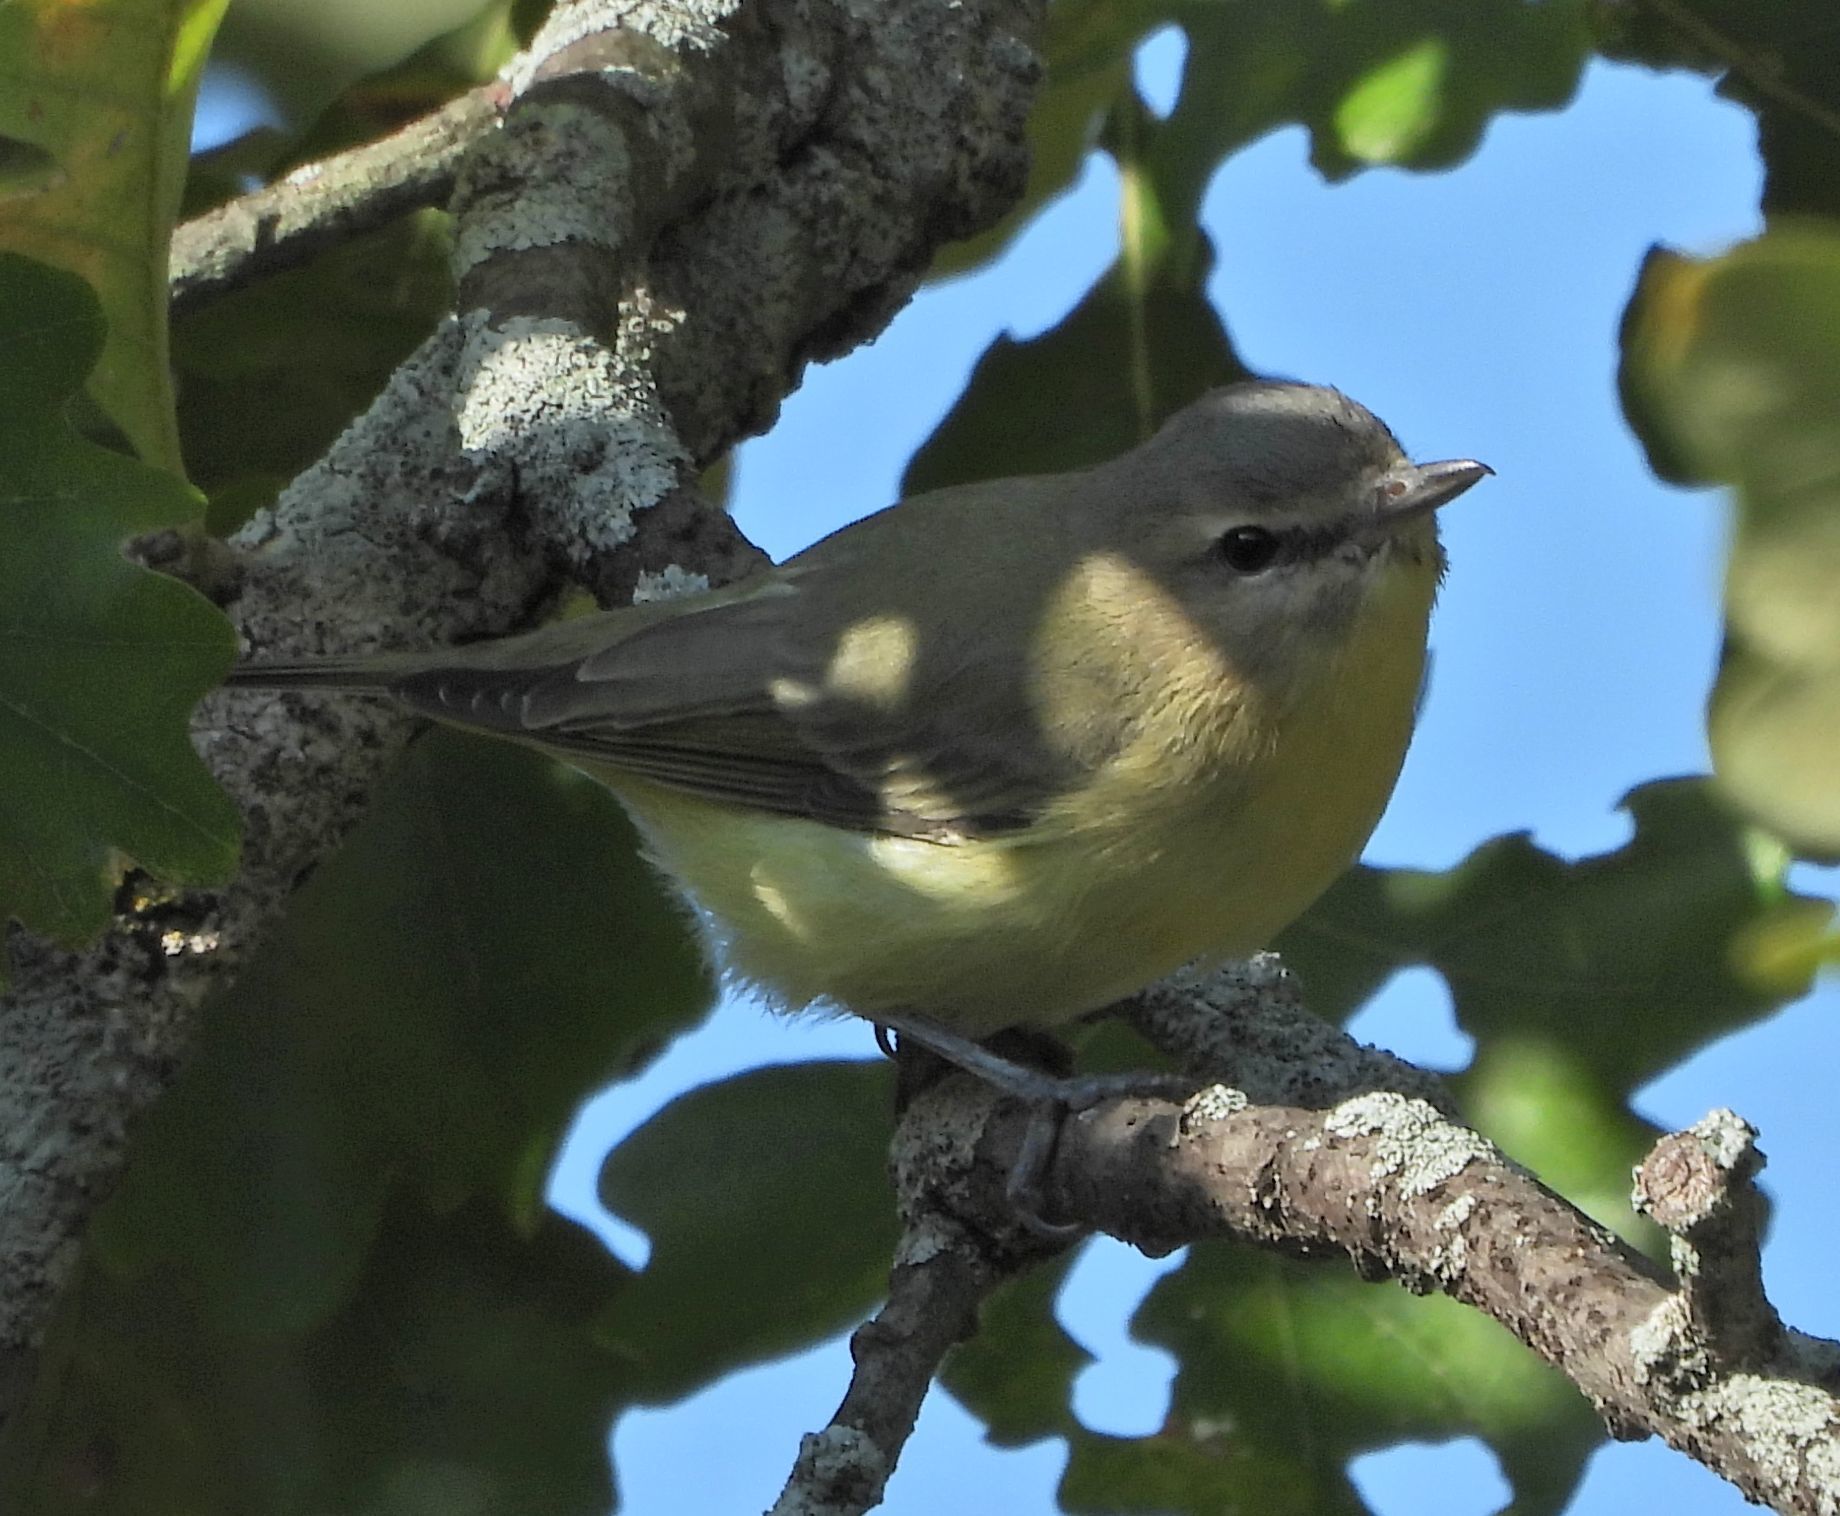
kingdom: Animalia
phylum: Chordata
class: Aves
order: Passeriformes
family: Vireonidae
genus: Vireo
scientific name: Vireo philadelphicus
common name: Philadelphia vireo
